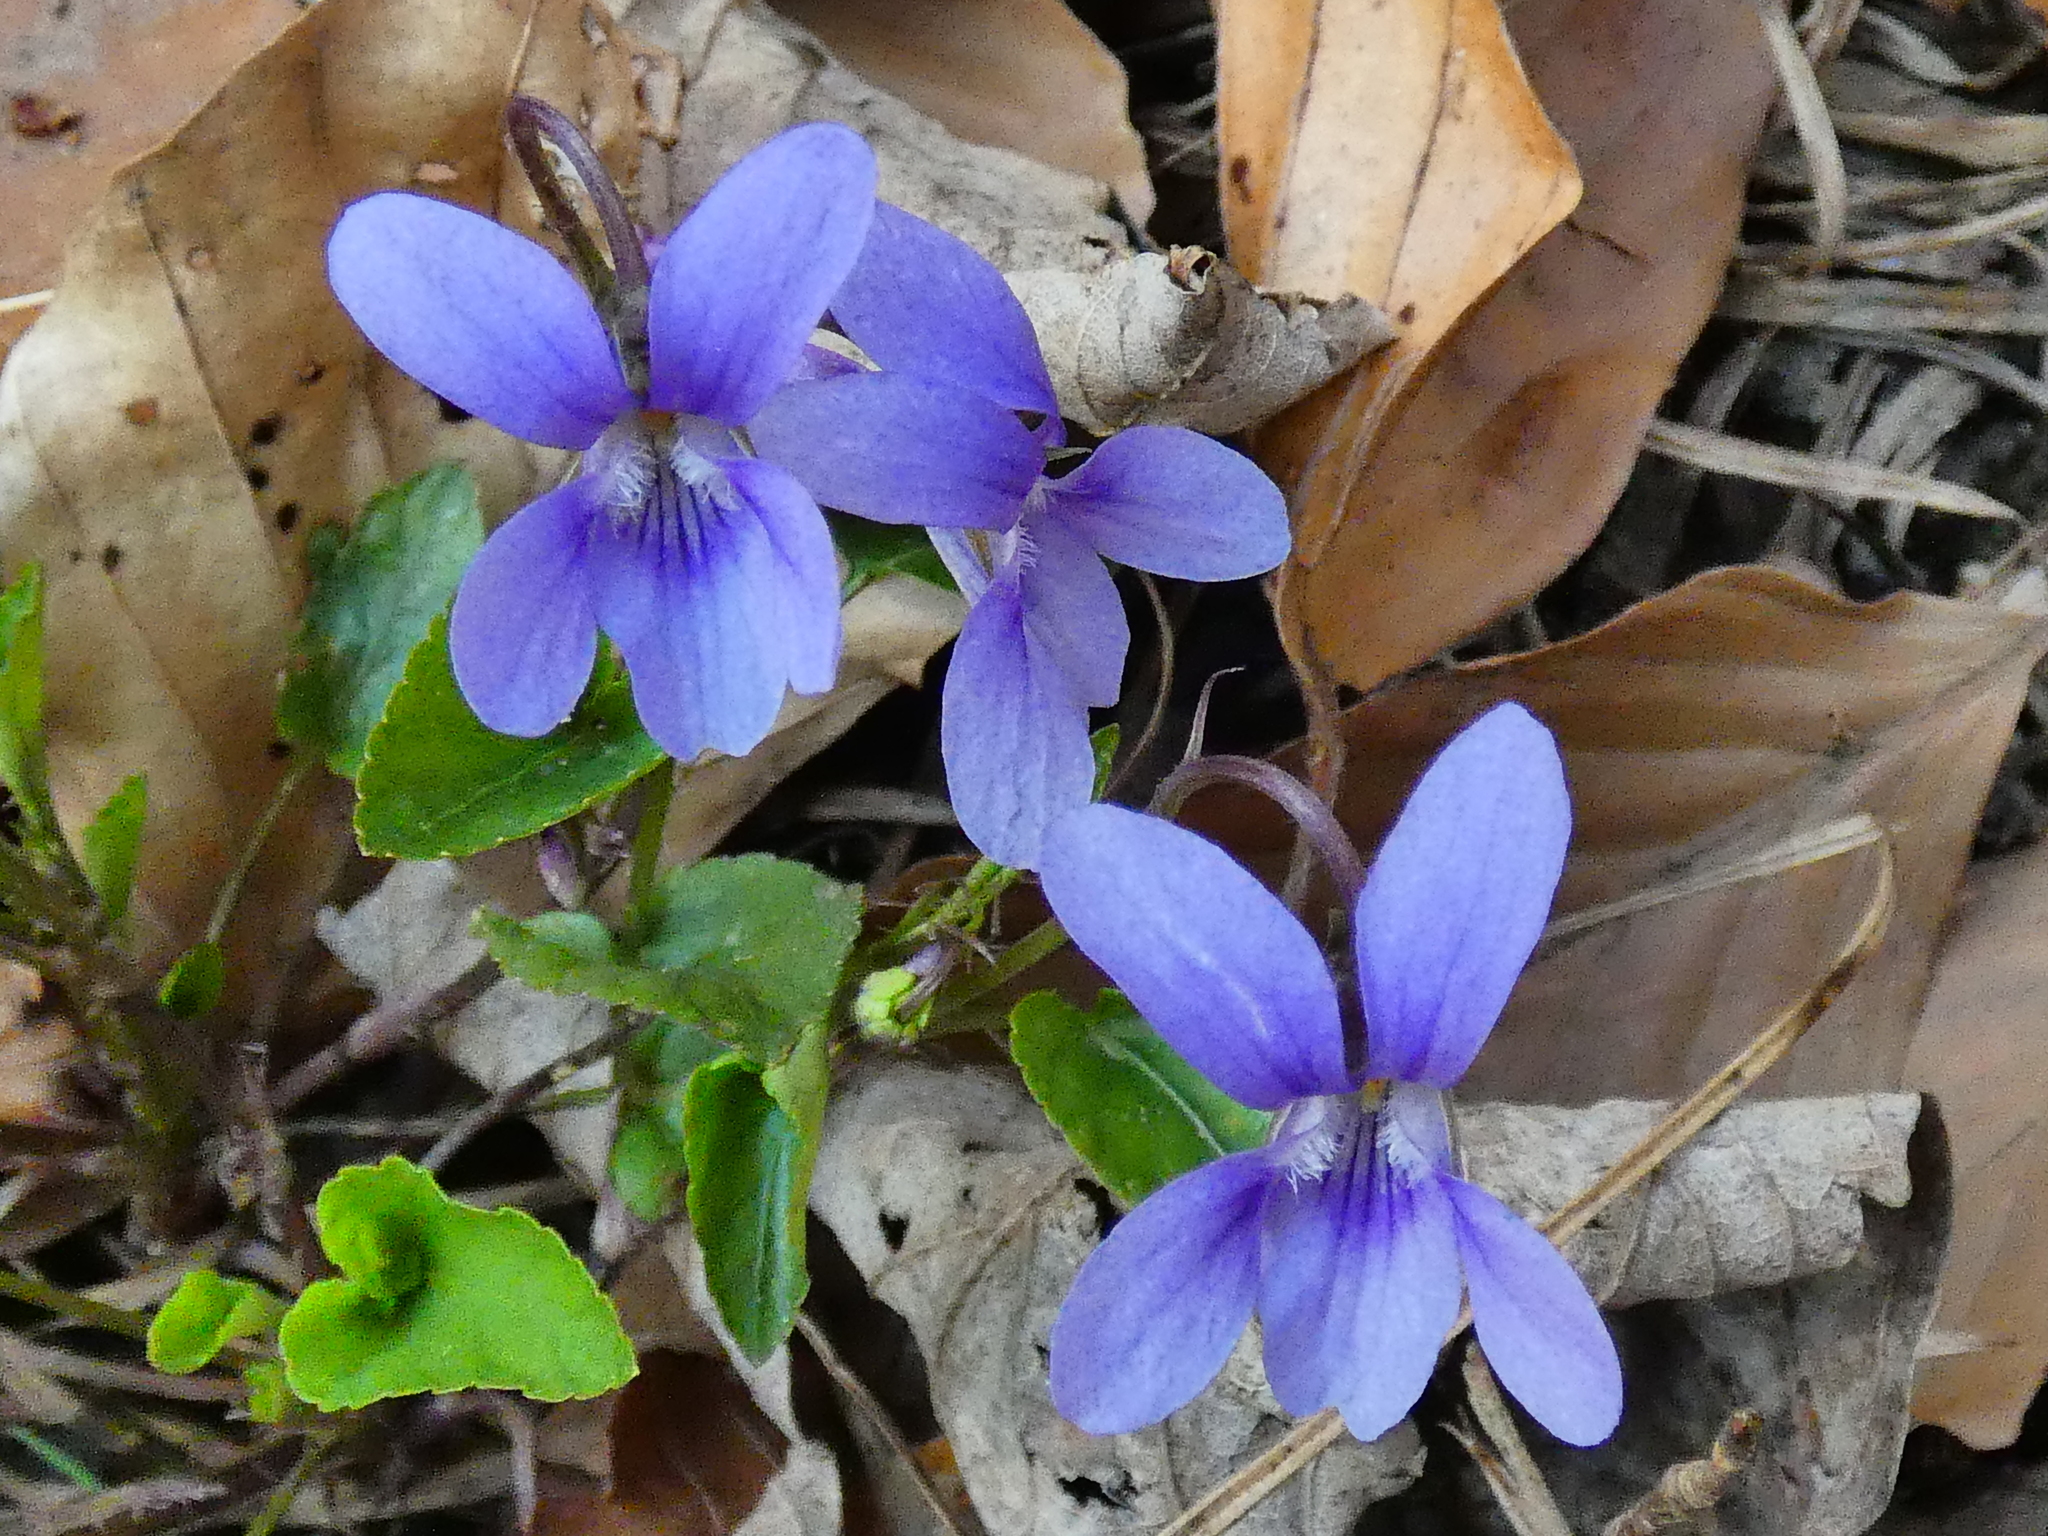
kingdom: Plantae
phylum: Tracheophyta
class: Magnoliopsida
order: Malpighiales
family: Violaceae
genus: Viola
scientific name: Viola reichenbachiana
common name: Early dog-violet
